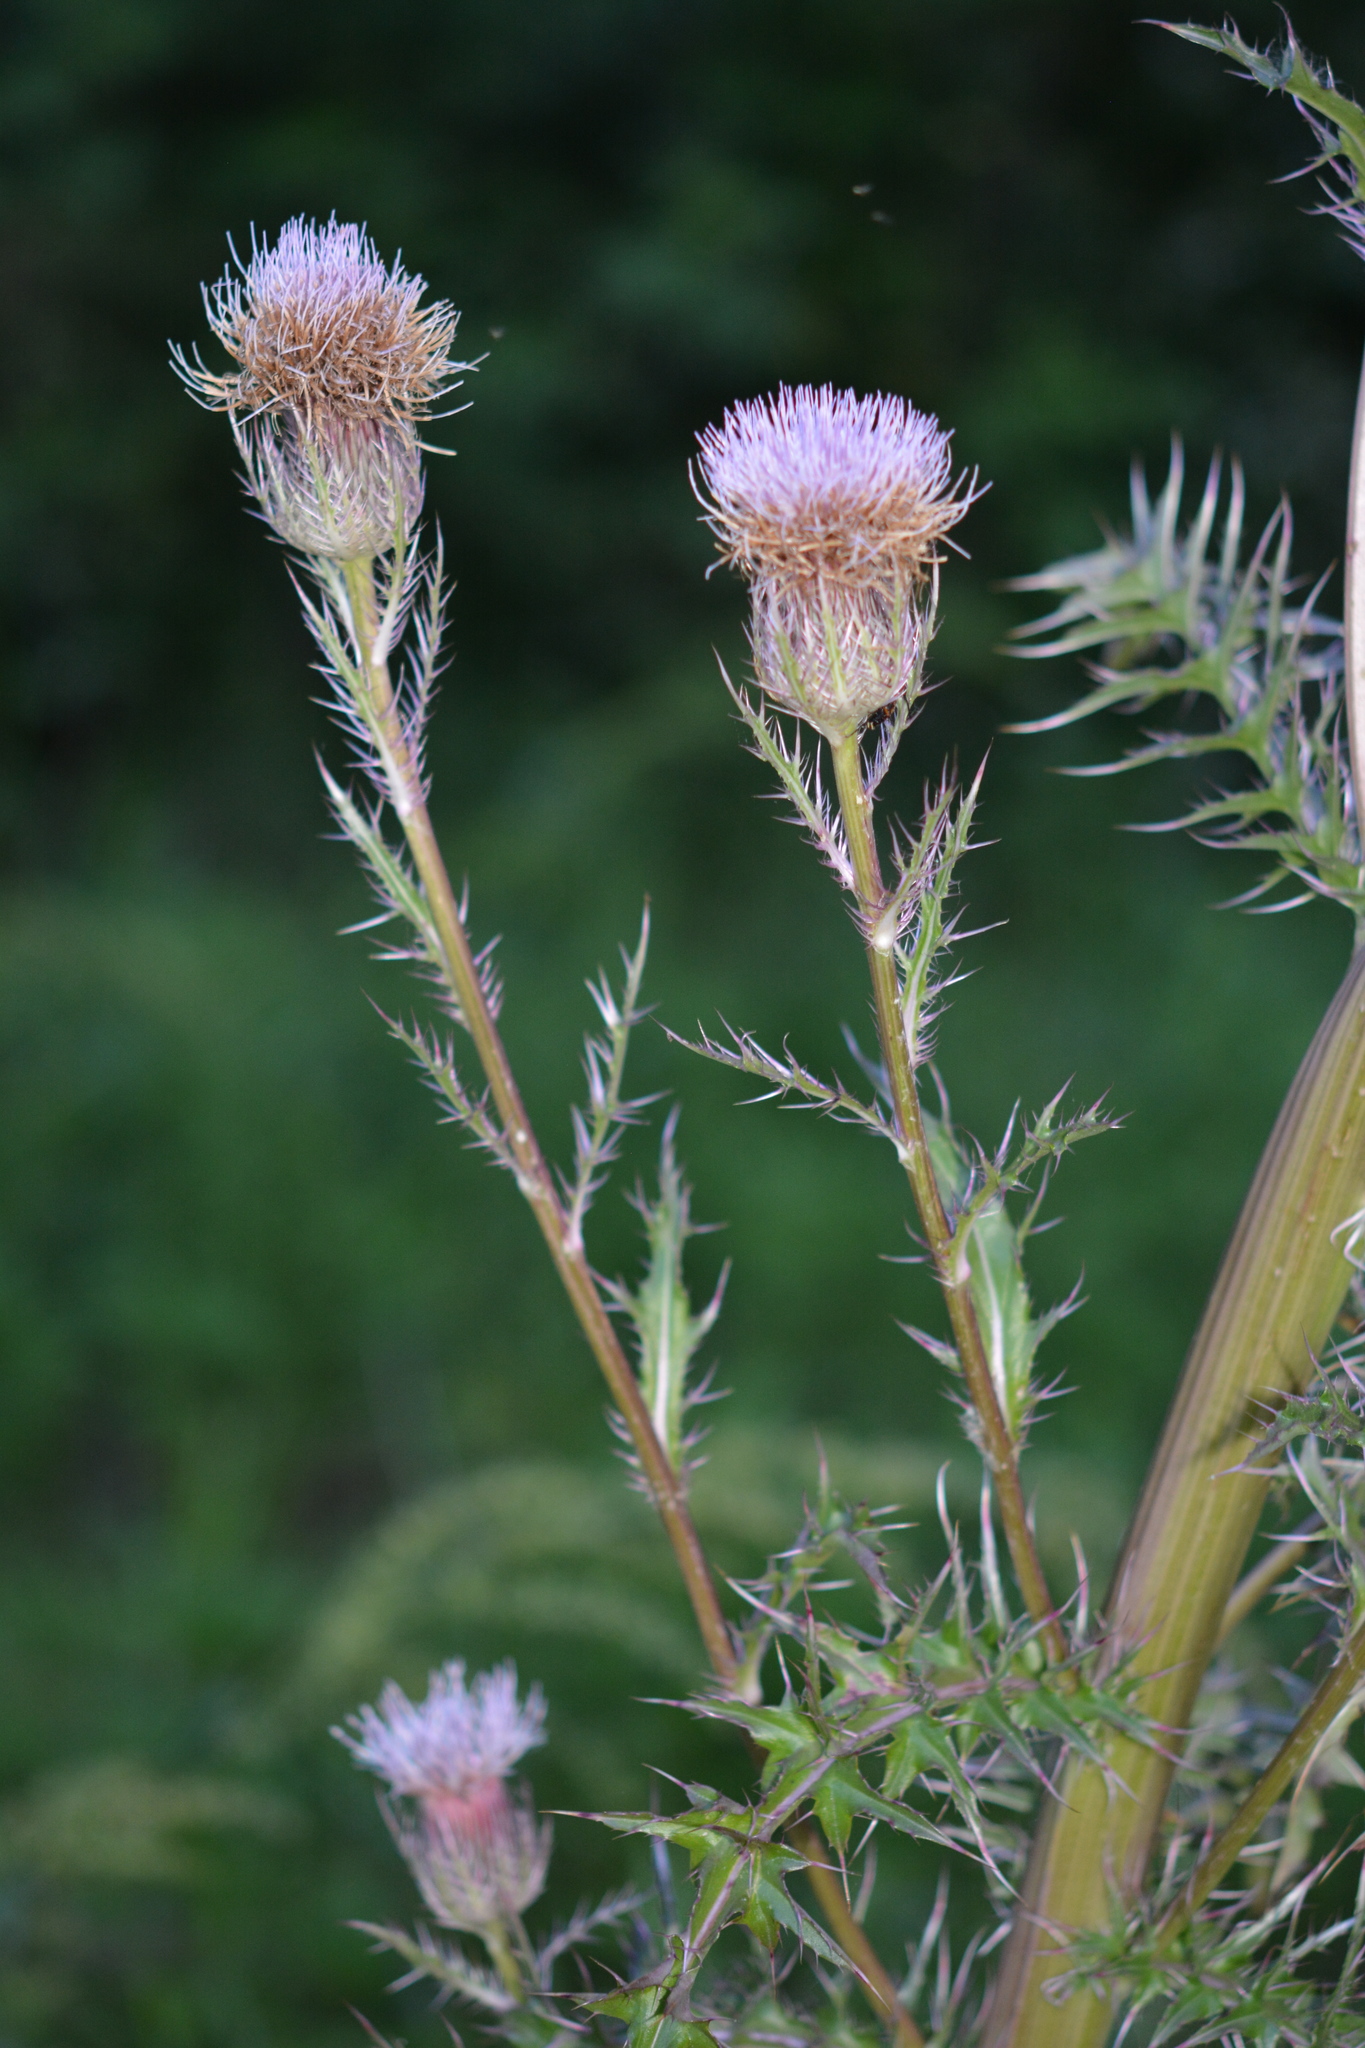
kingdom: Plantae
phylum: Tracheophyta
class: Magnoliopsida
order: Asterales
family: Asteraceae
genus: Cirsium
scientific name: Cirsium horridulum
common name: Bristly thistle
